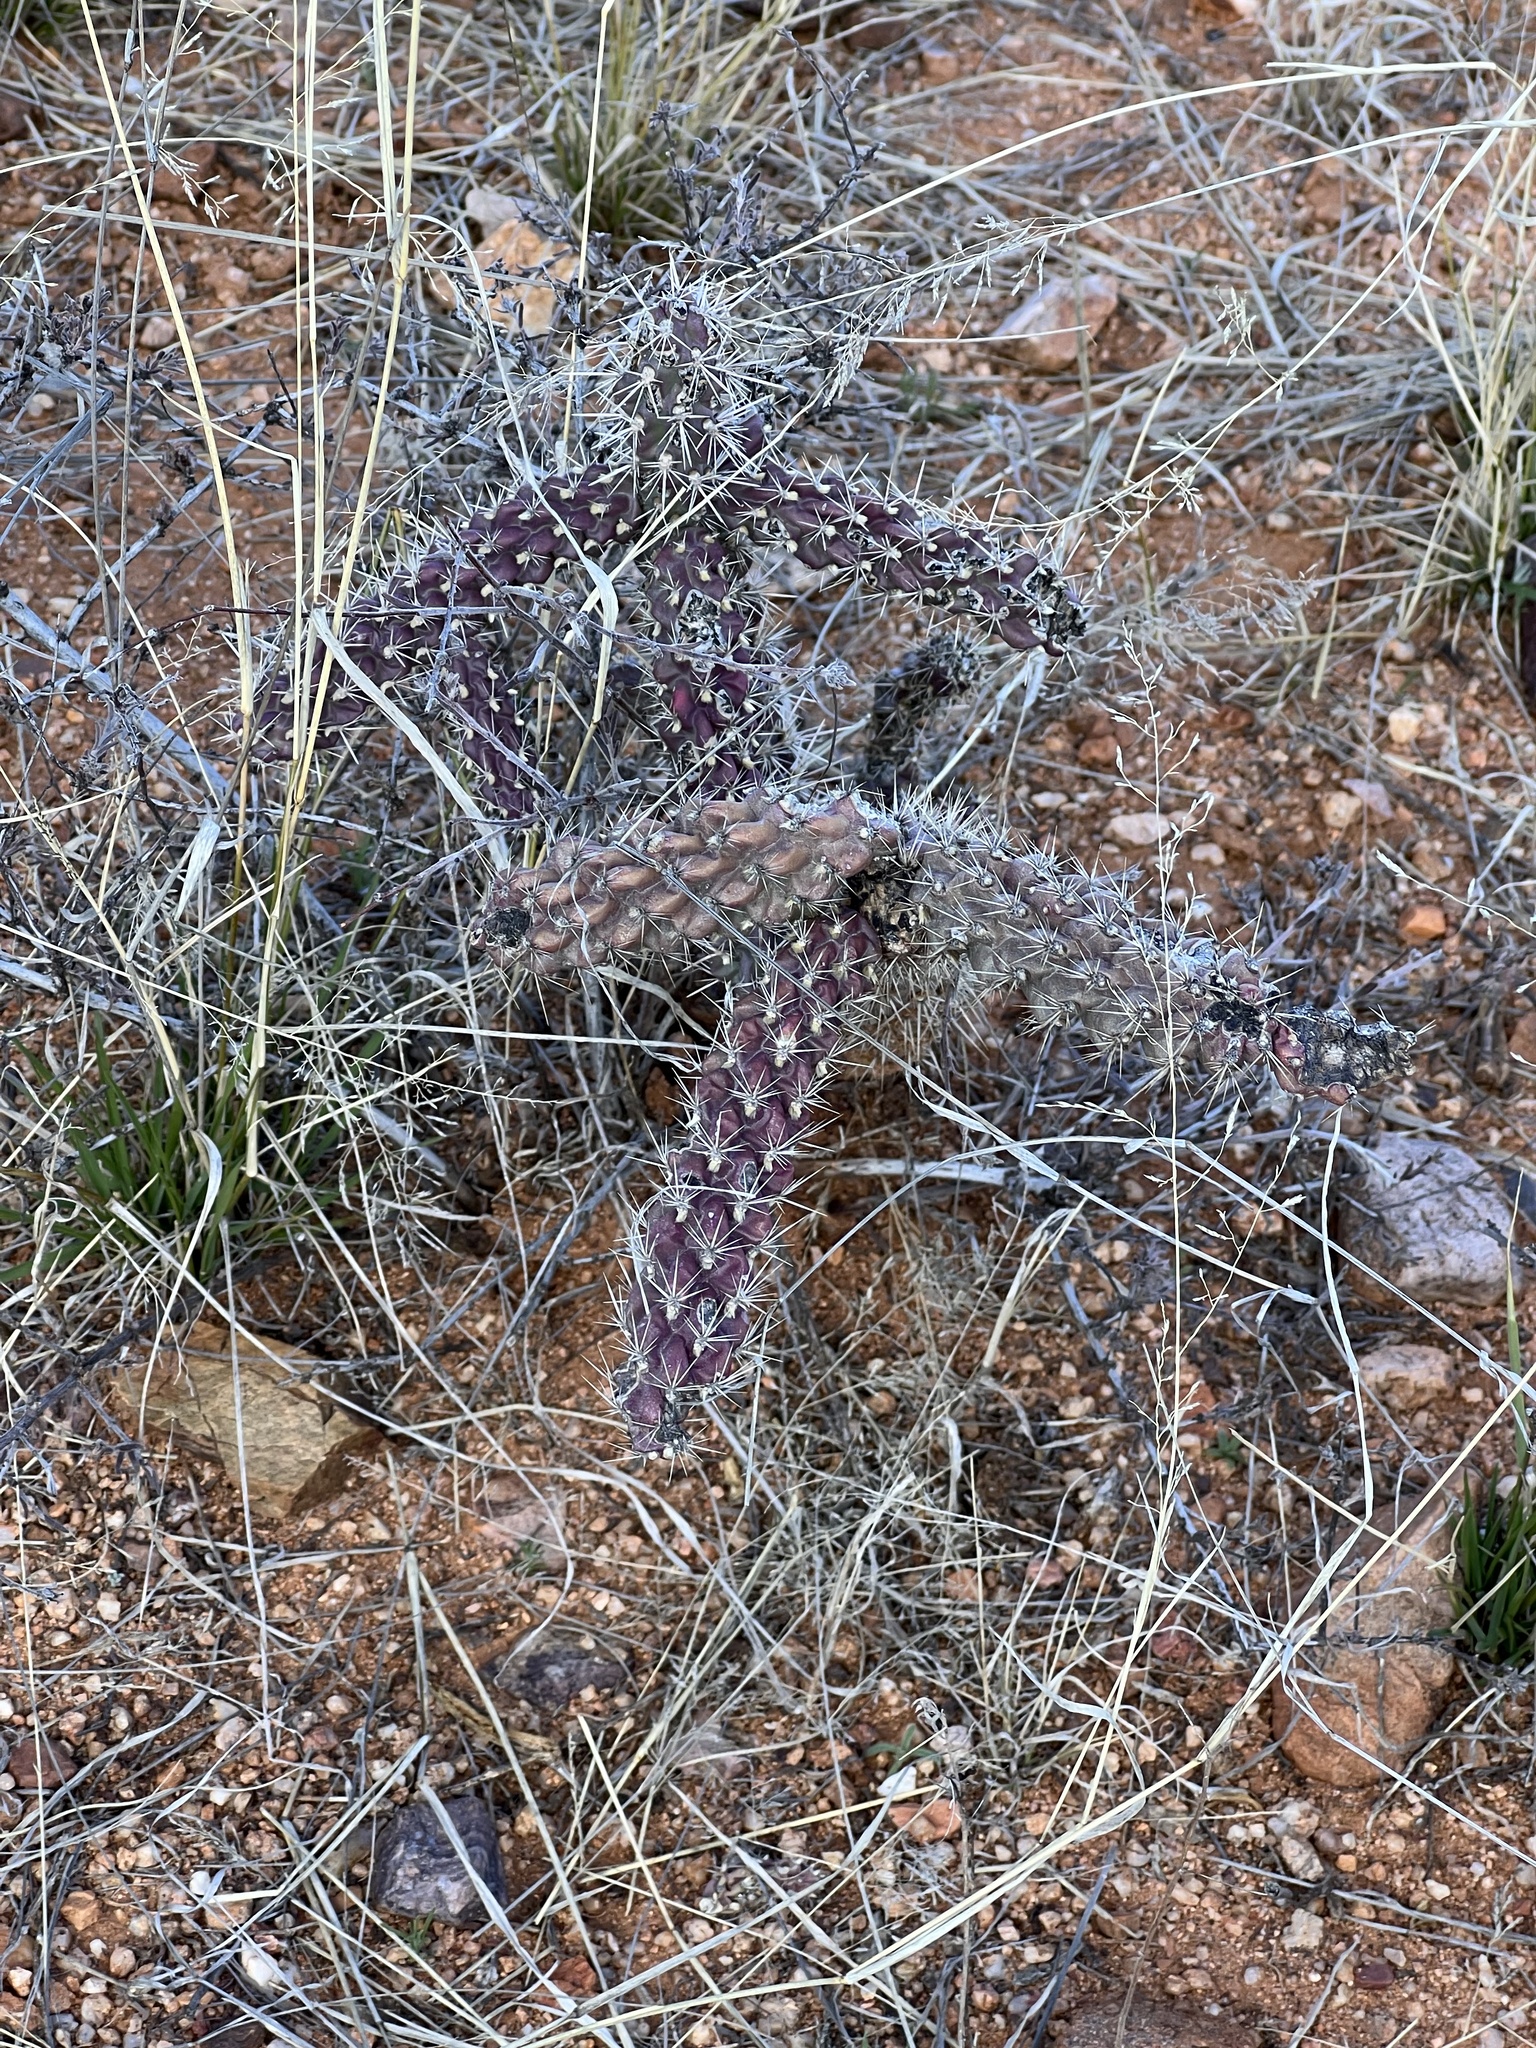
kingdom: Plantae
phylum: Tracheophyta
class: Magnoliopsida
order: Caryophyllales
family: Cactaceae
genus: Cylindropuntia
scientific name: Cylindropuntia imbricata
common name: Candelabrum cactus
